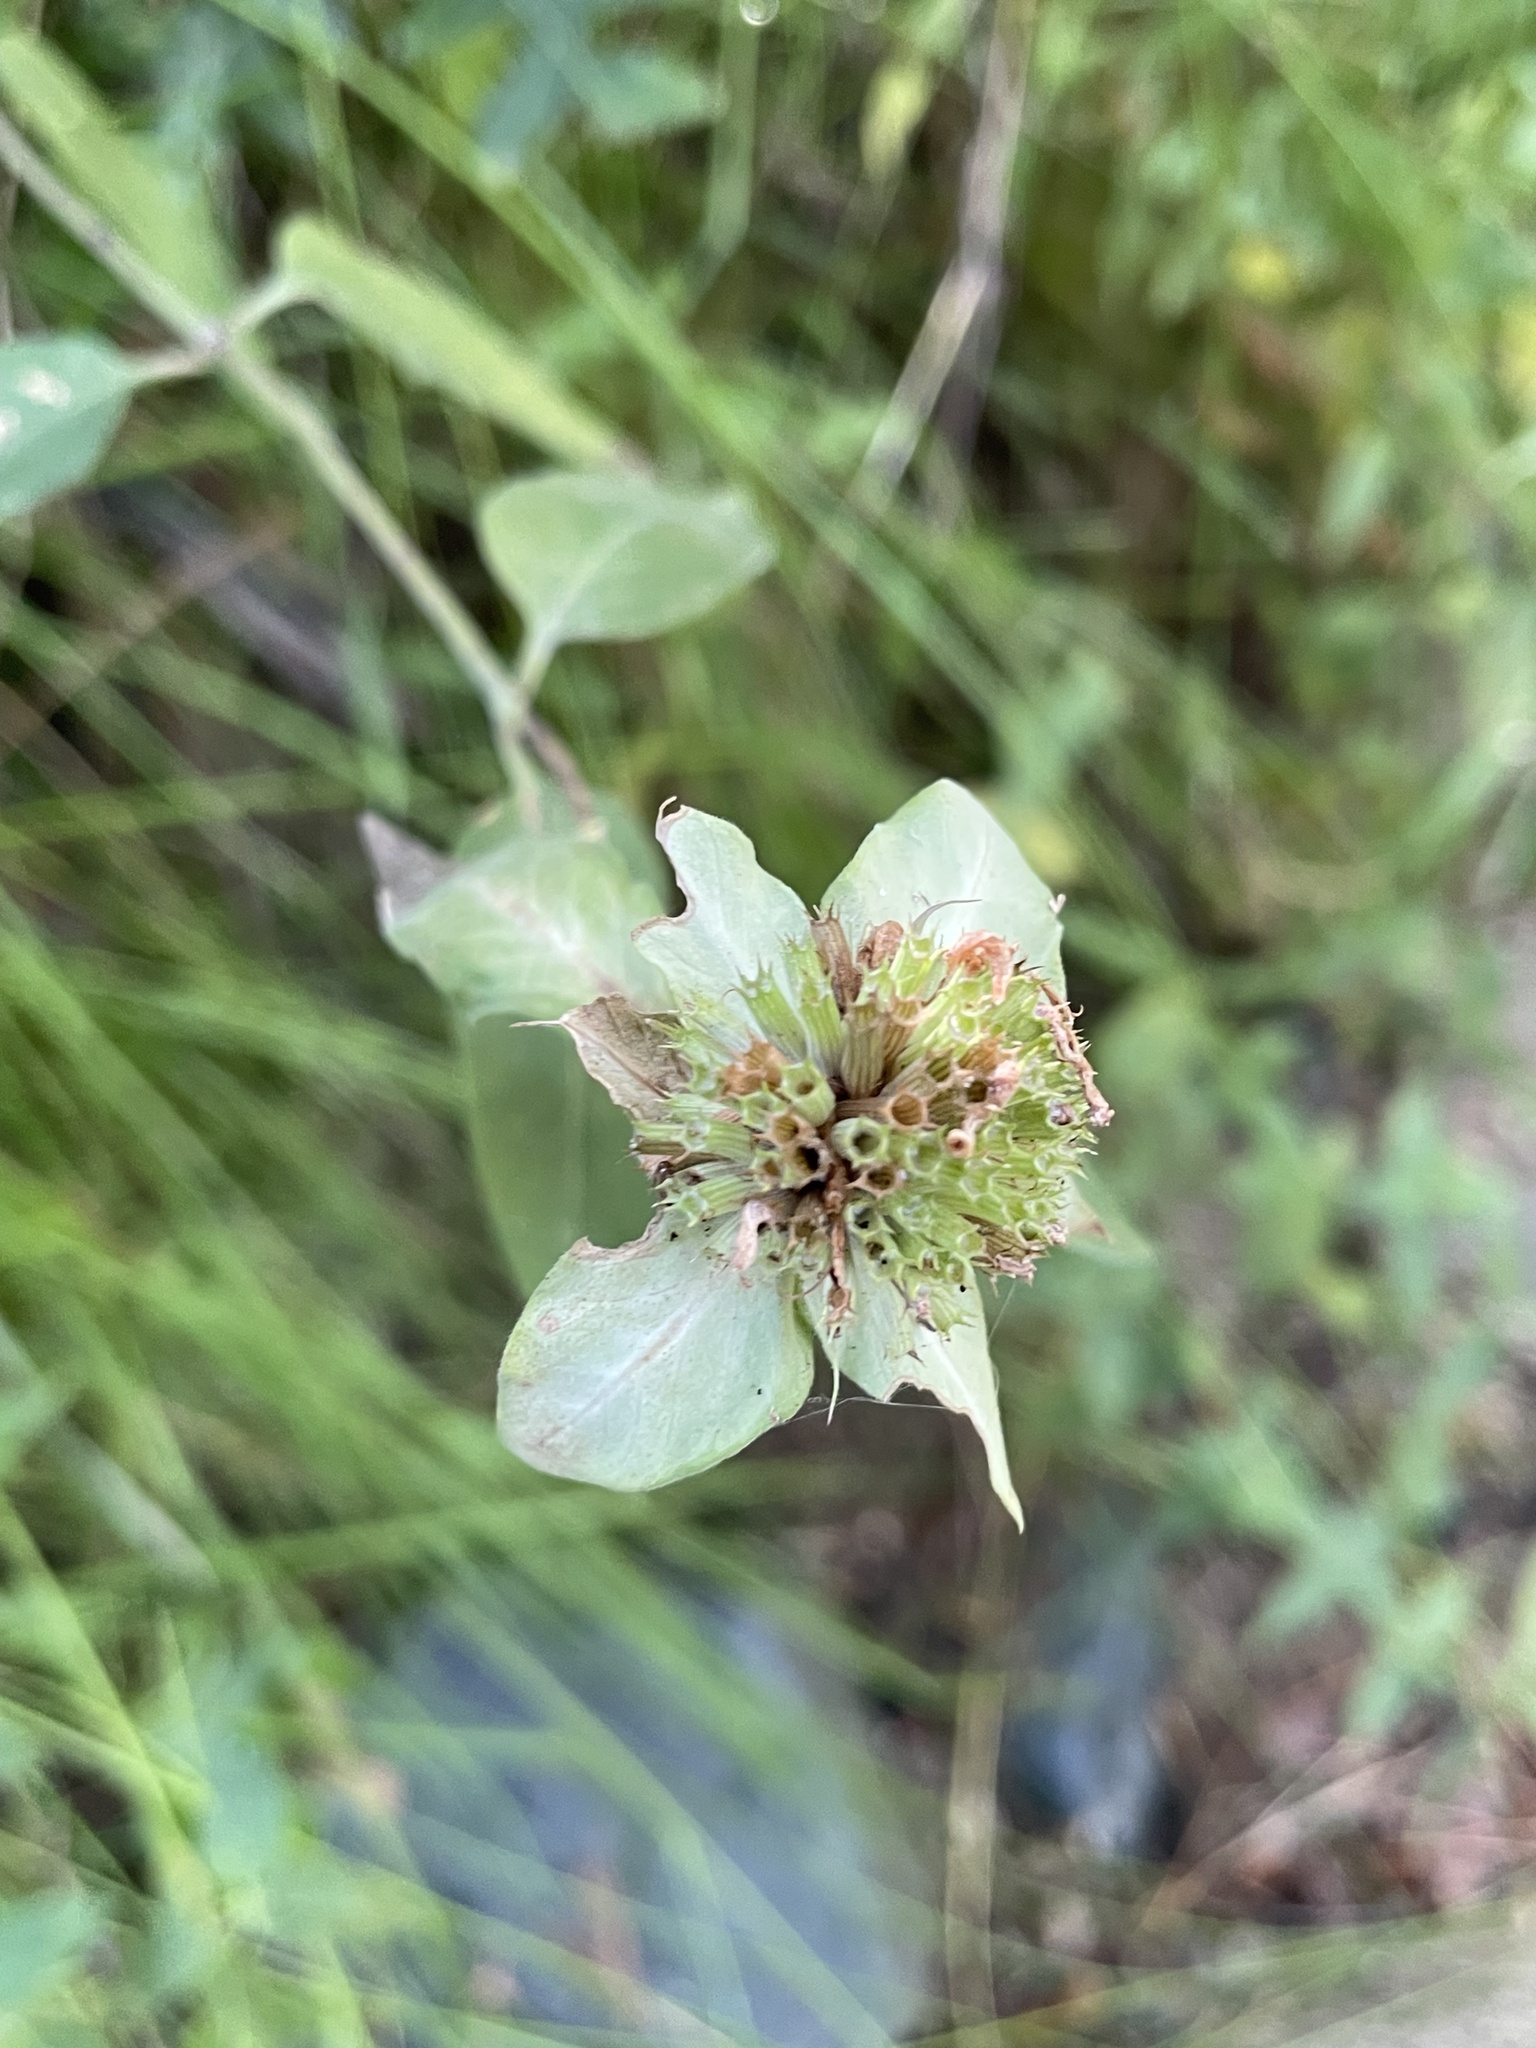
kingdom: Plantae
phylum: Tracheophyta
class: Magnoliopsida
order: Lamiales
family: Lamiaceae
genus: Monarda
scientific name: Monarda fistulosa
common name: Purple beebalm
